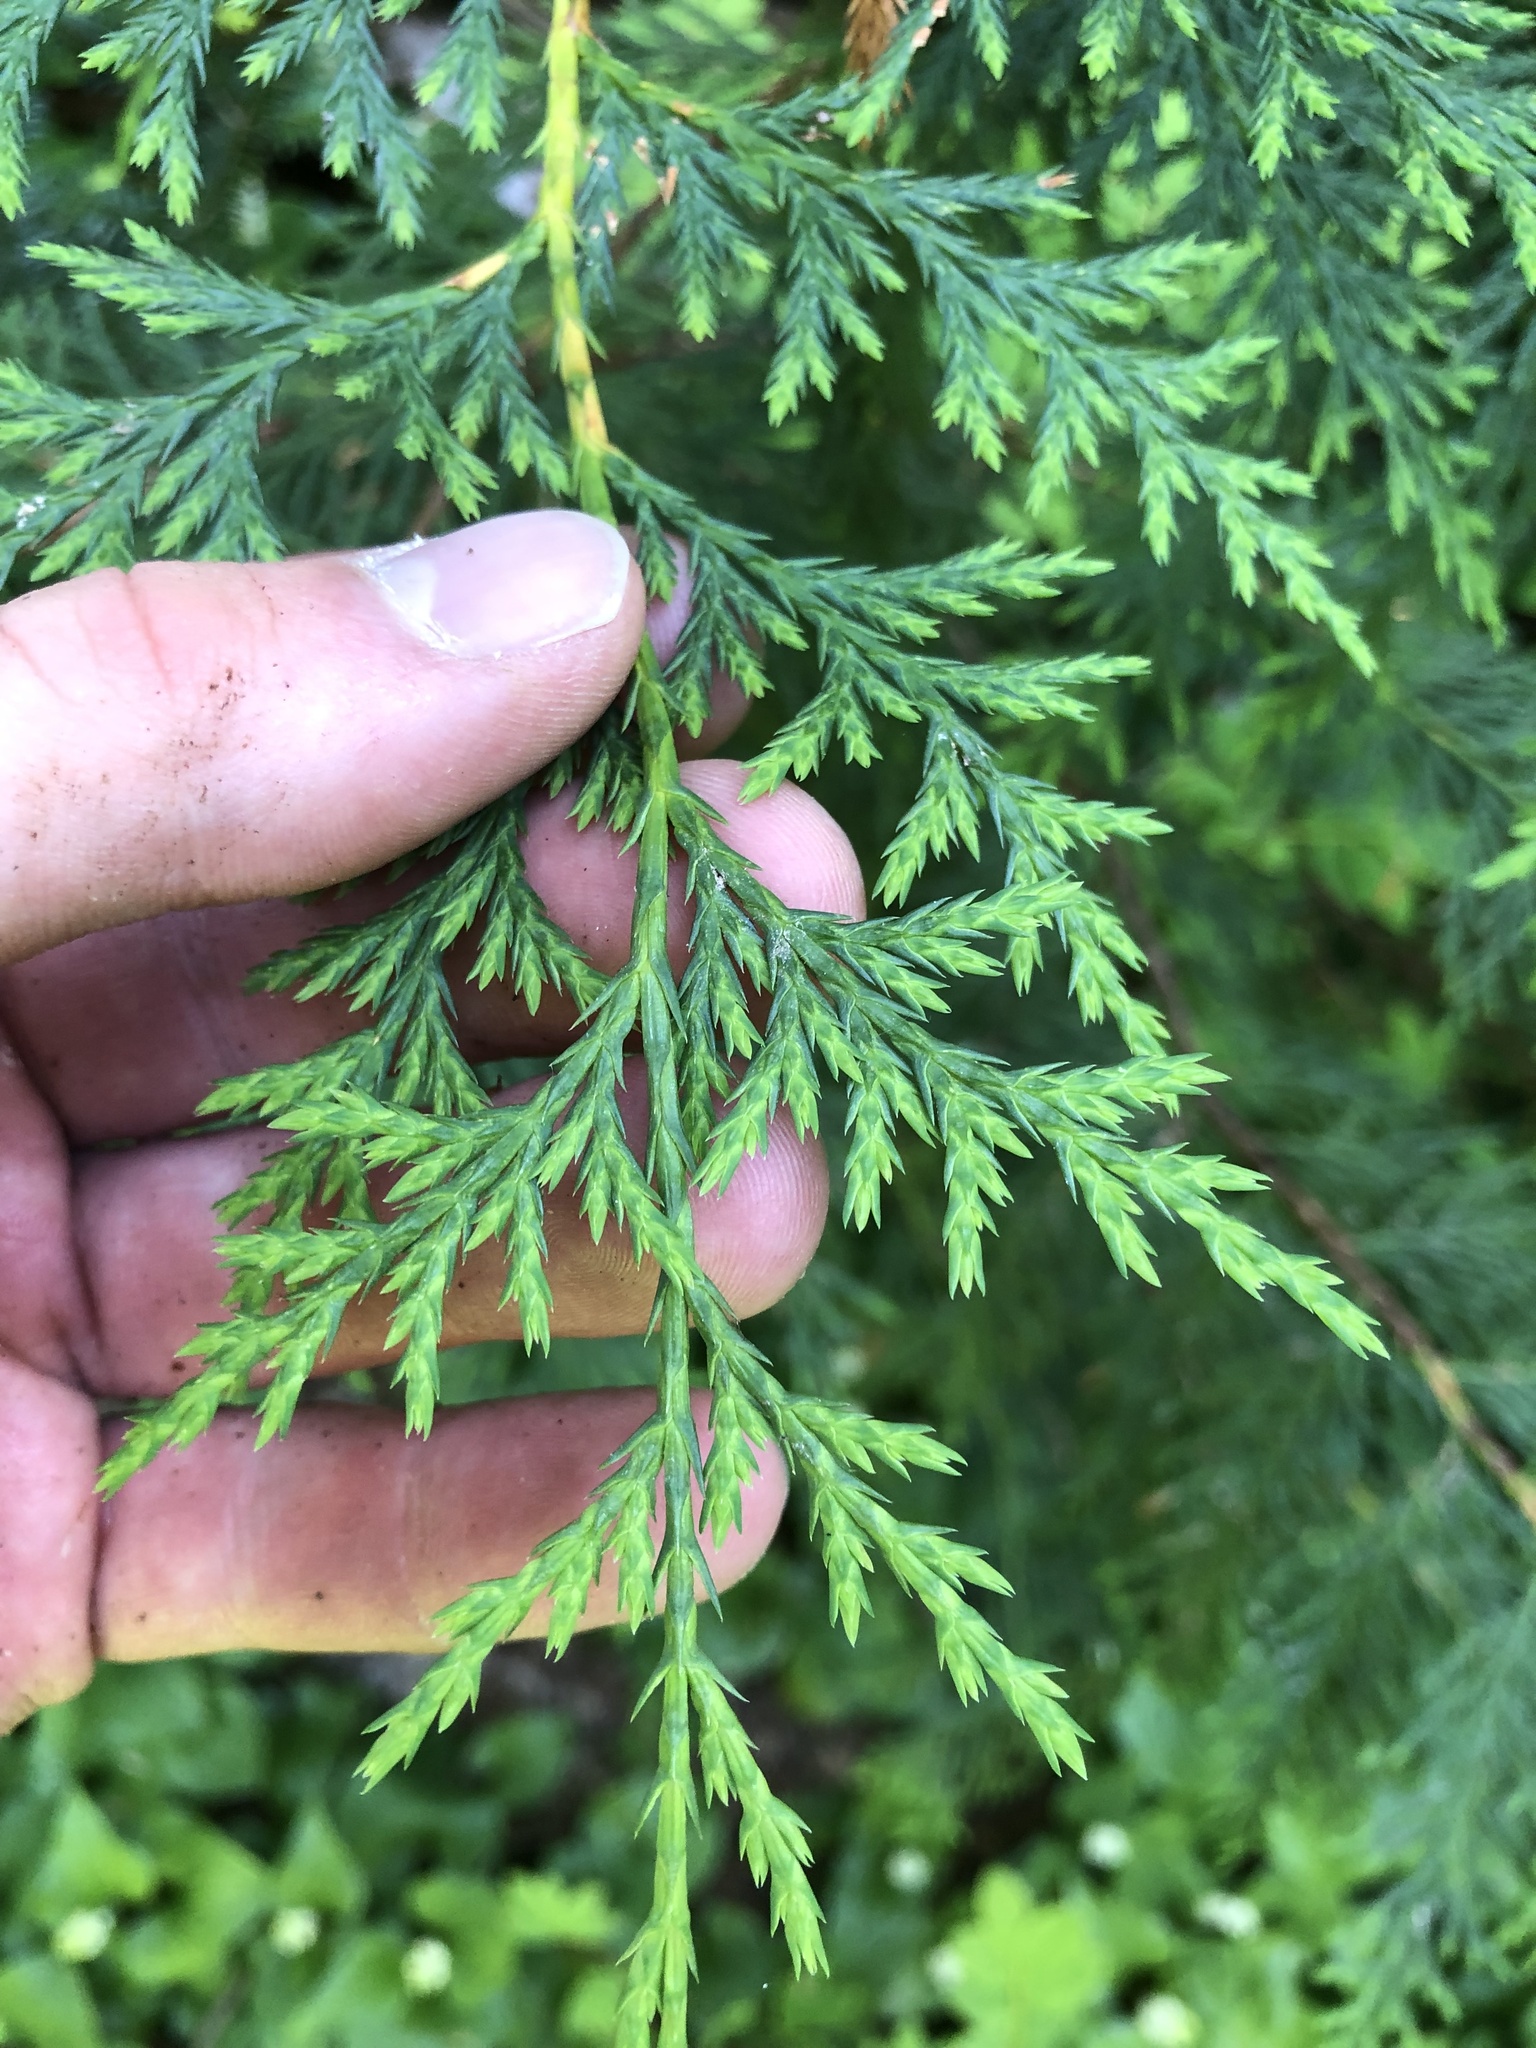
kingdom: Plantae
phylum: Tracheophyta
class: Pinopsida
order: Pinales
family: Cupressaceae
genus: Xanthocyparis
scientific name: Xanthocyparis nootkatensis
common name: Nootka cypress
